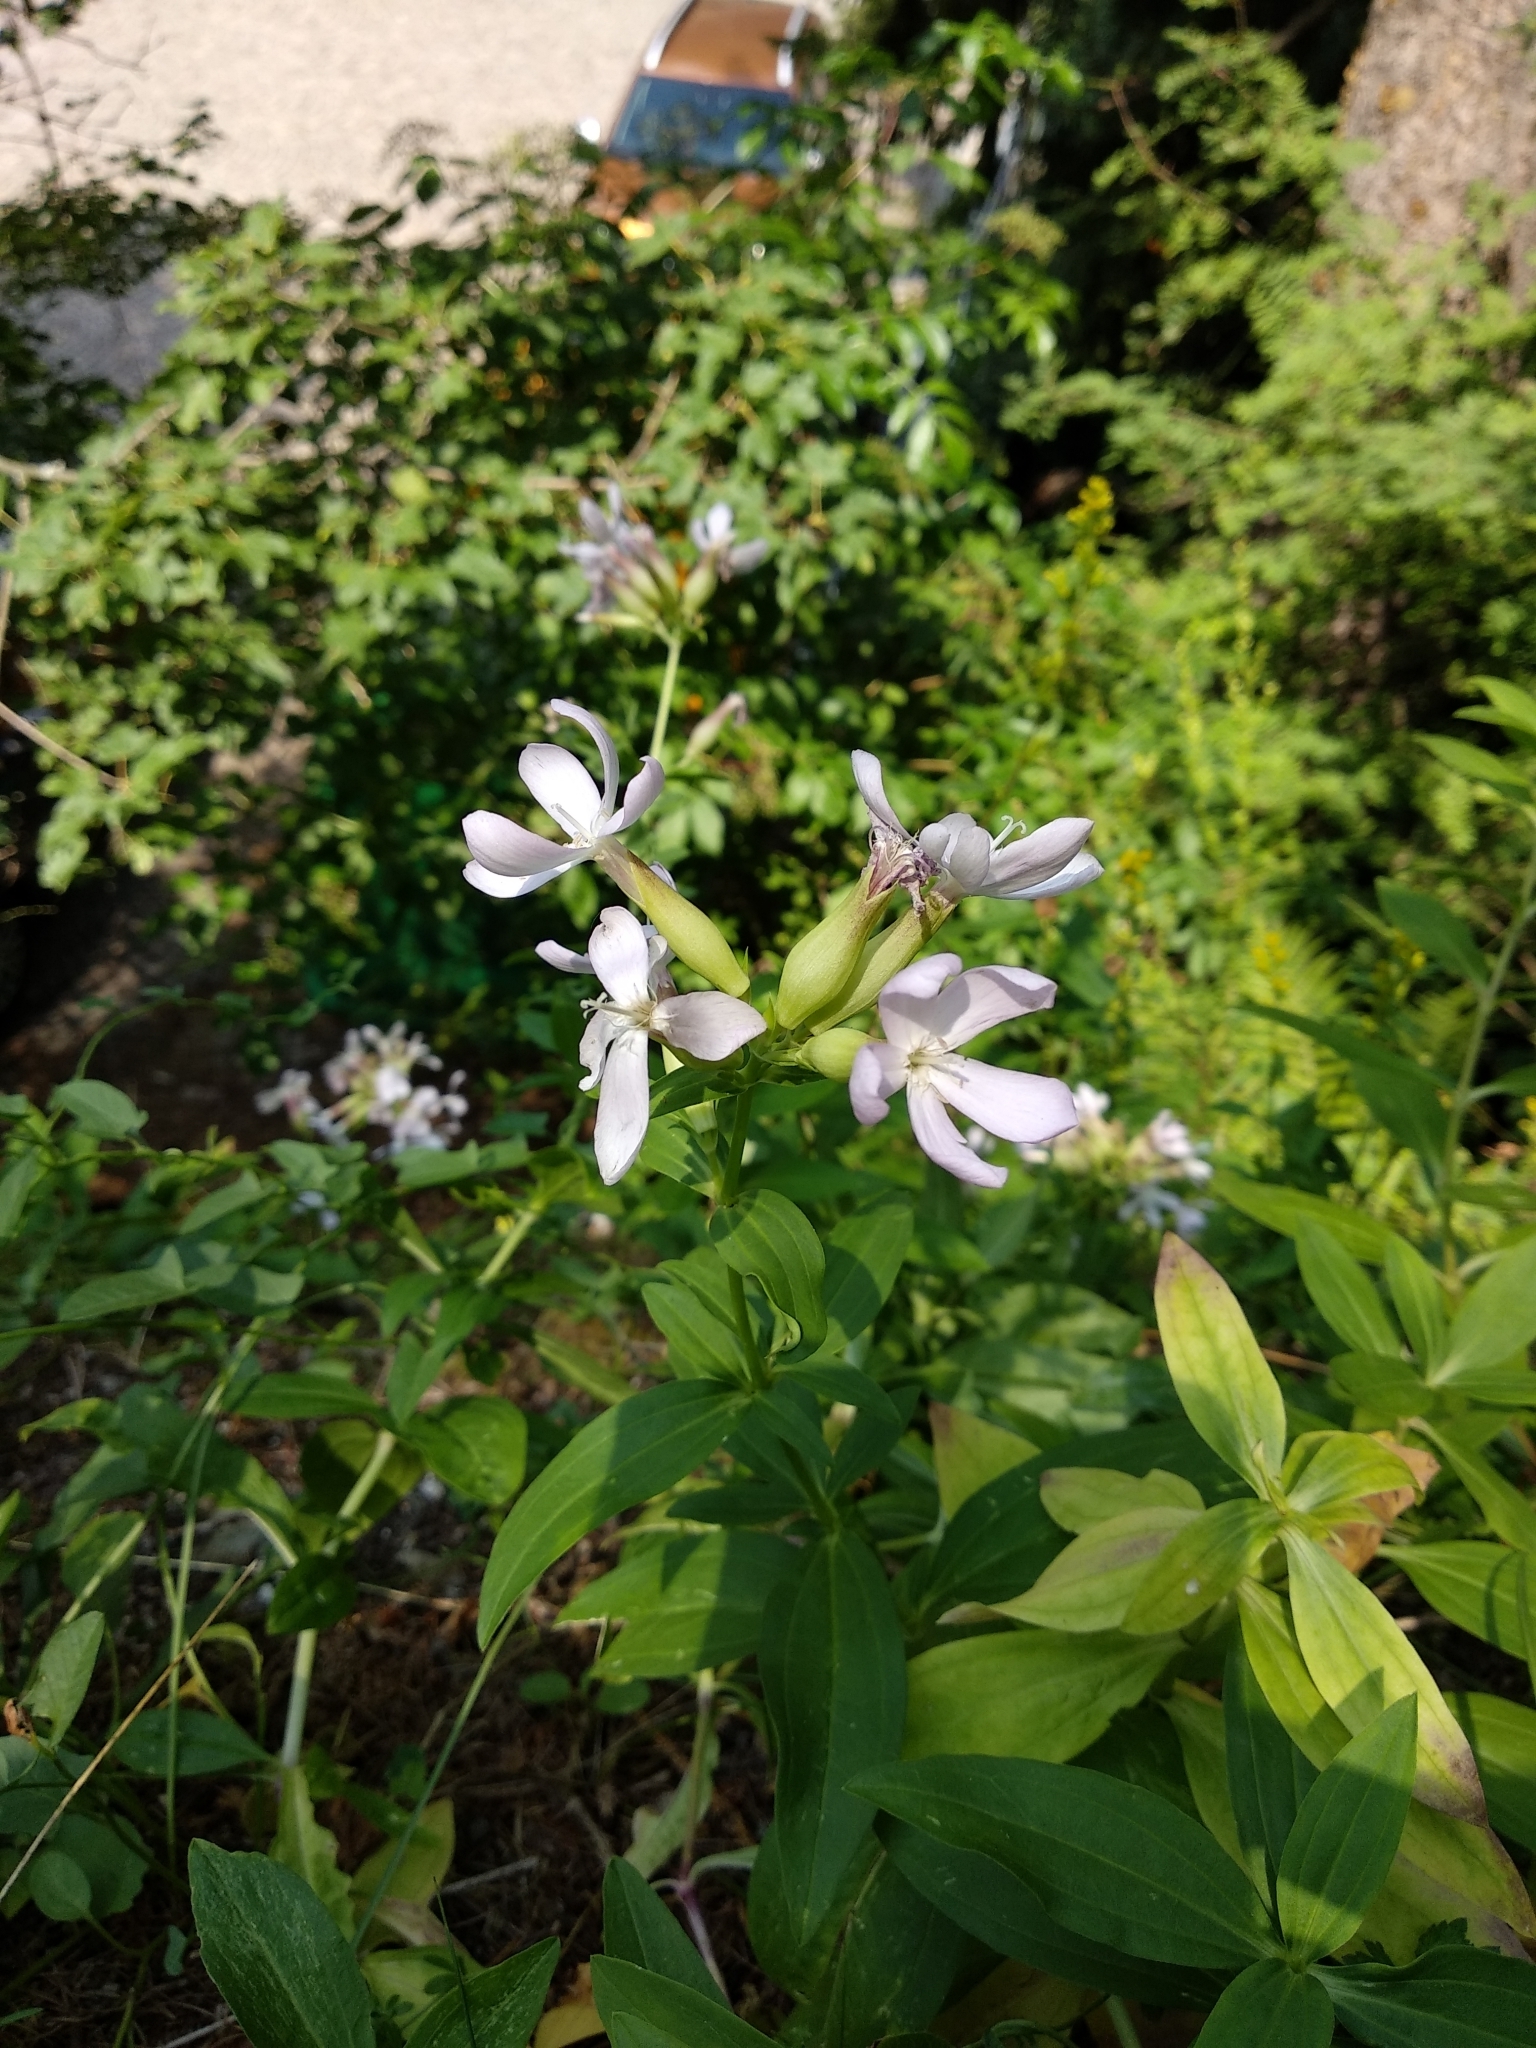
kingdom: Plantae
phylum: Tracheophyta
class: Magnoliopsida
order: Caryophyllales
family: Caryophyllaceae
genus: Saponaria
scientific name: Saponaria officinalis
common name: Soapwort
